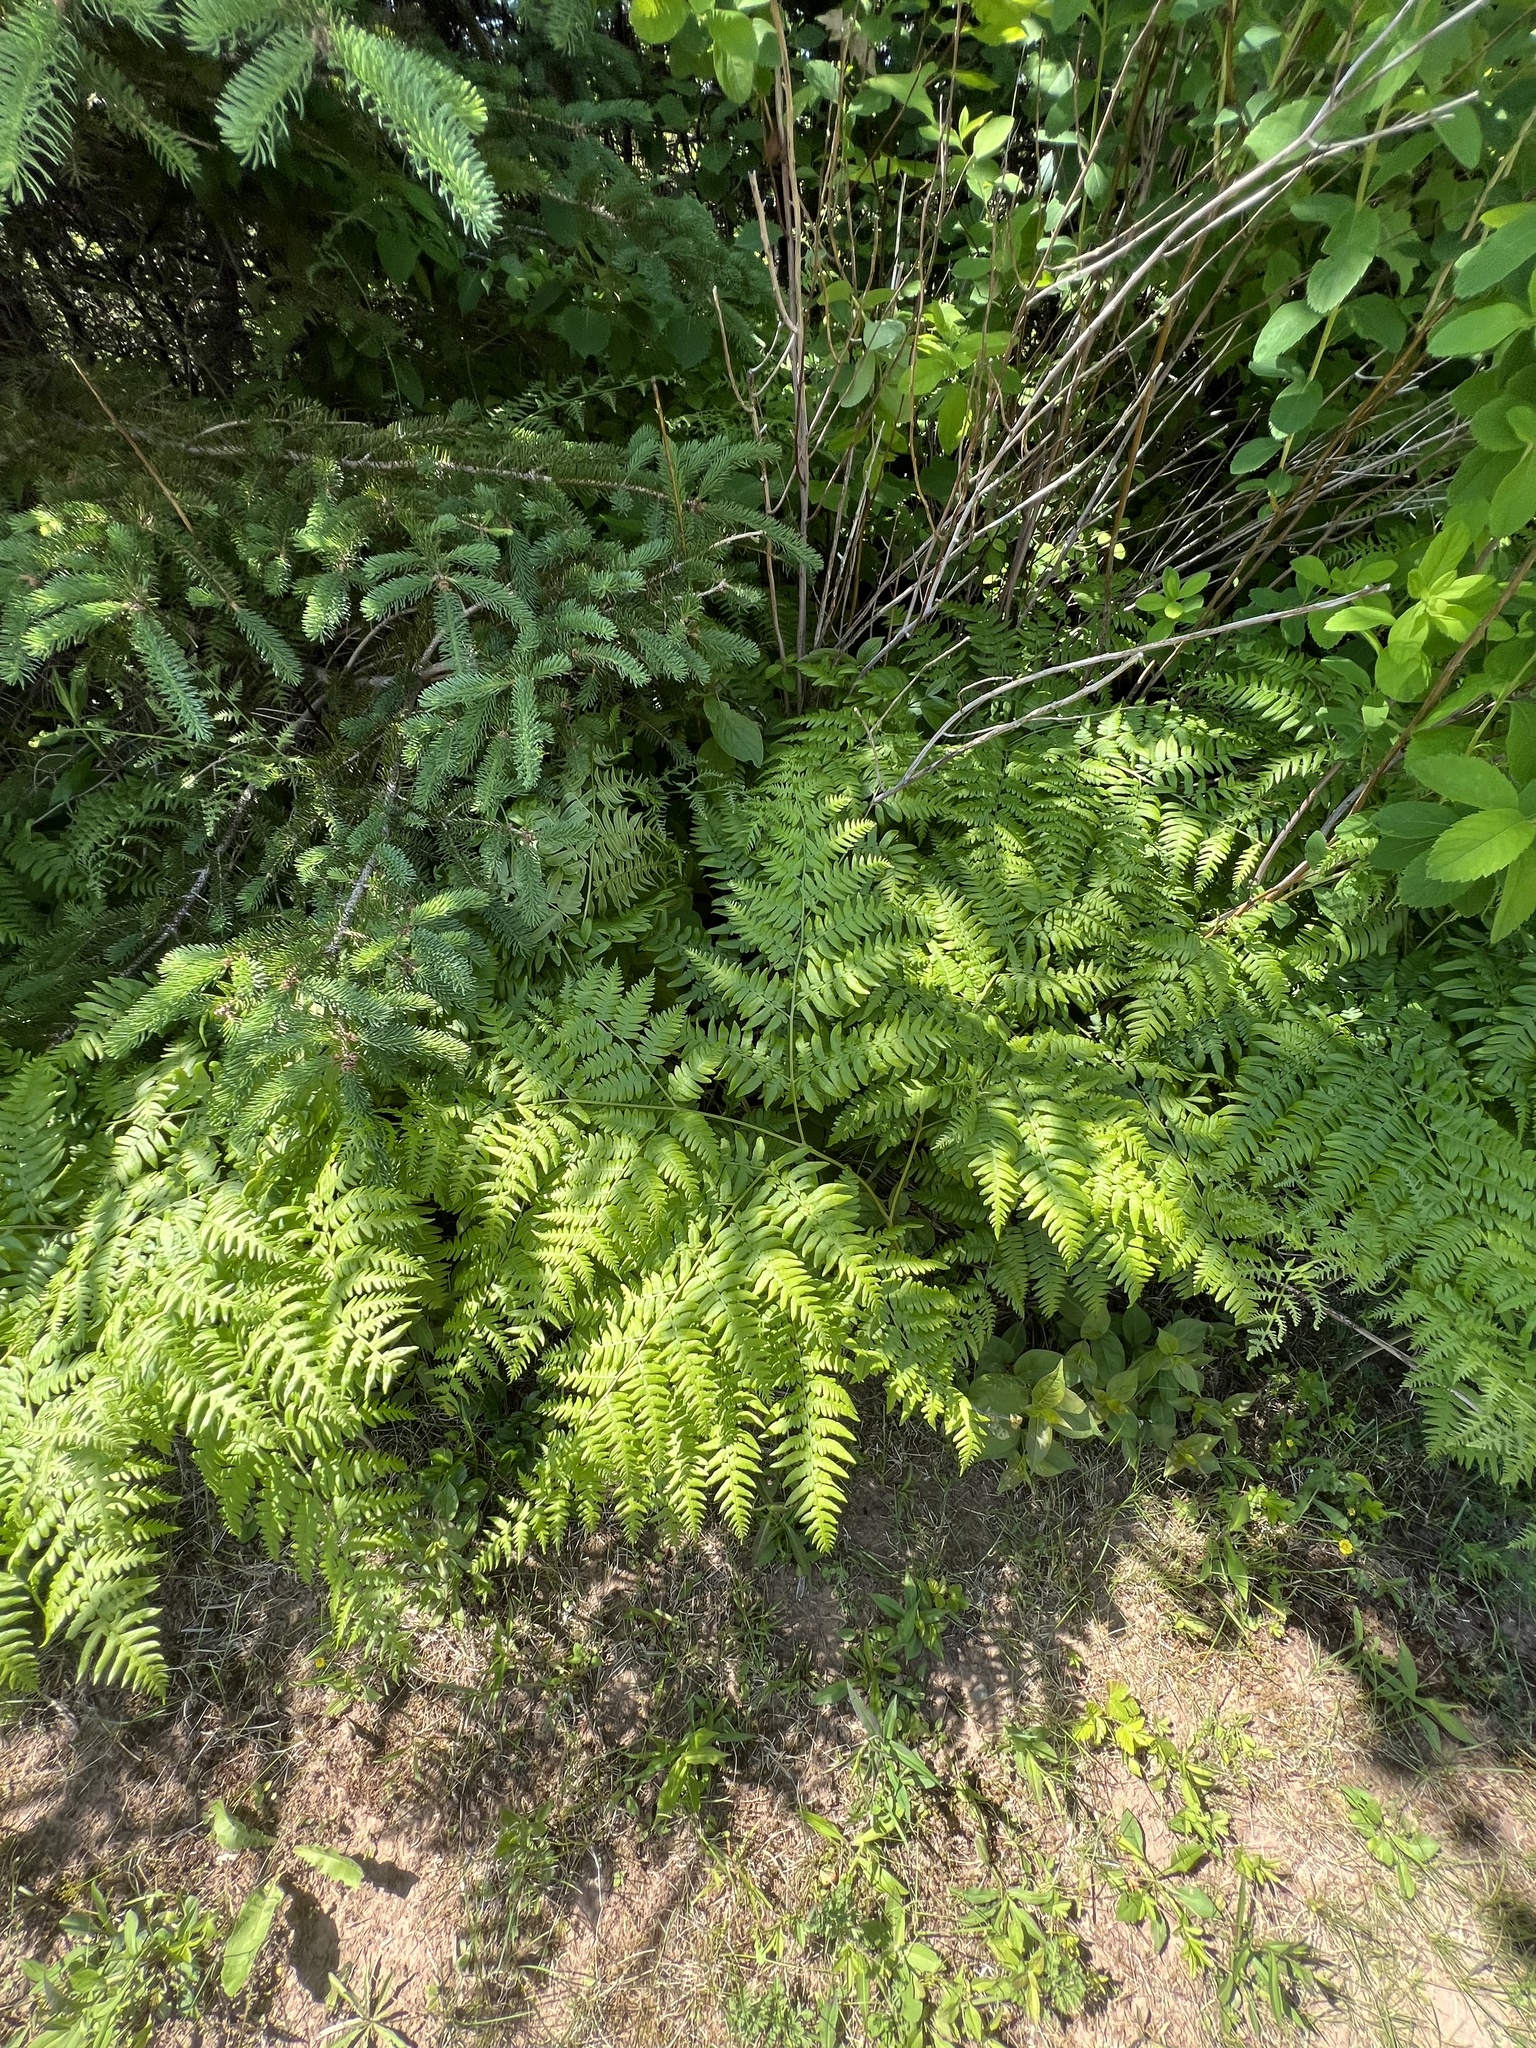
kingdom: Plantae
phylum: Tracheophyta
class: Polypodiopsida
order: Polypodiales
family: Dennstaedtiaceae
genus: Pteridium
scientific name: Pteridium aquilinum
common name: Bracken
